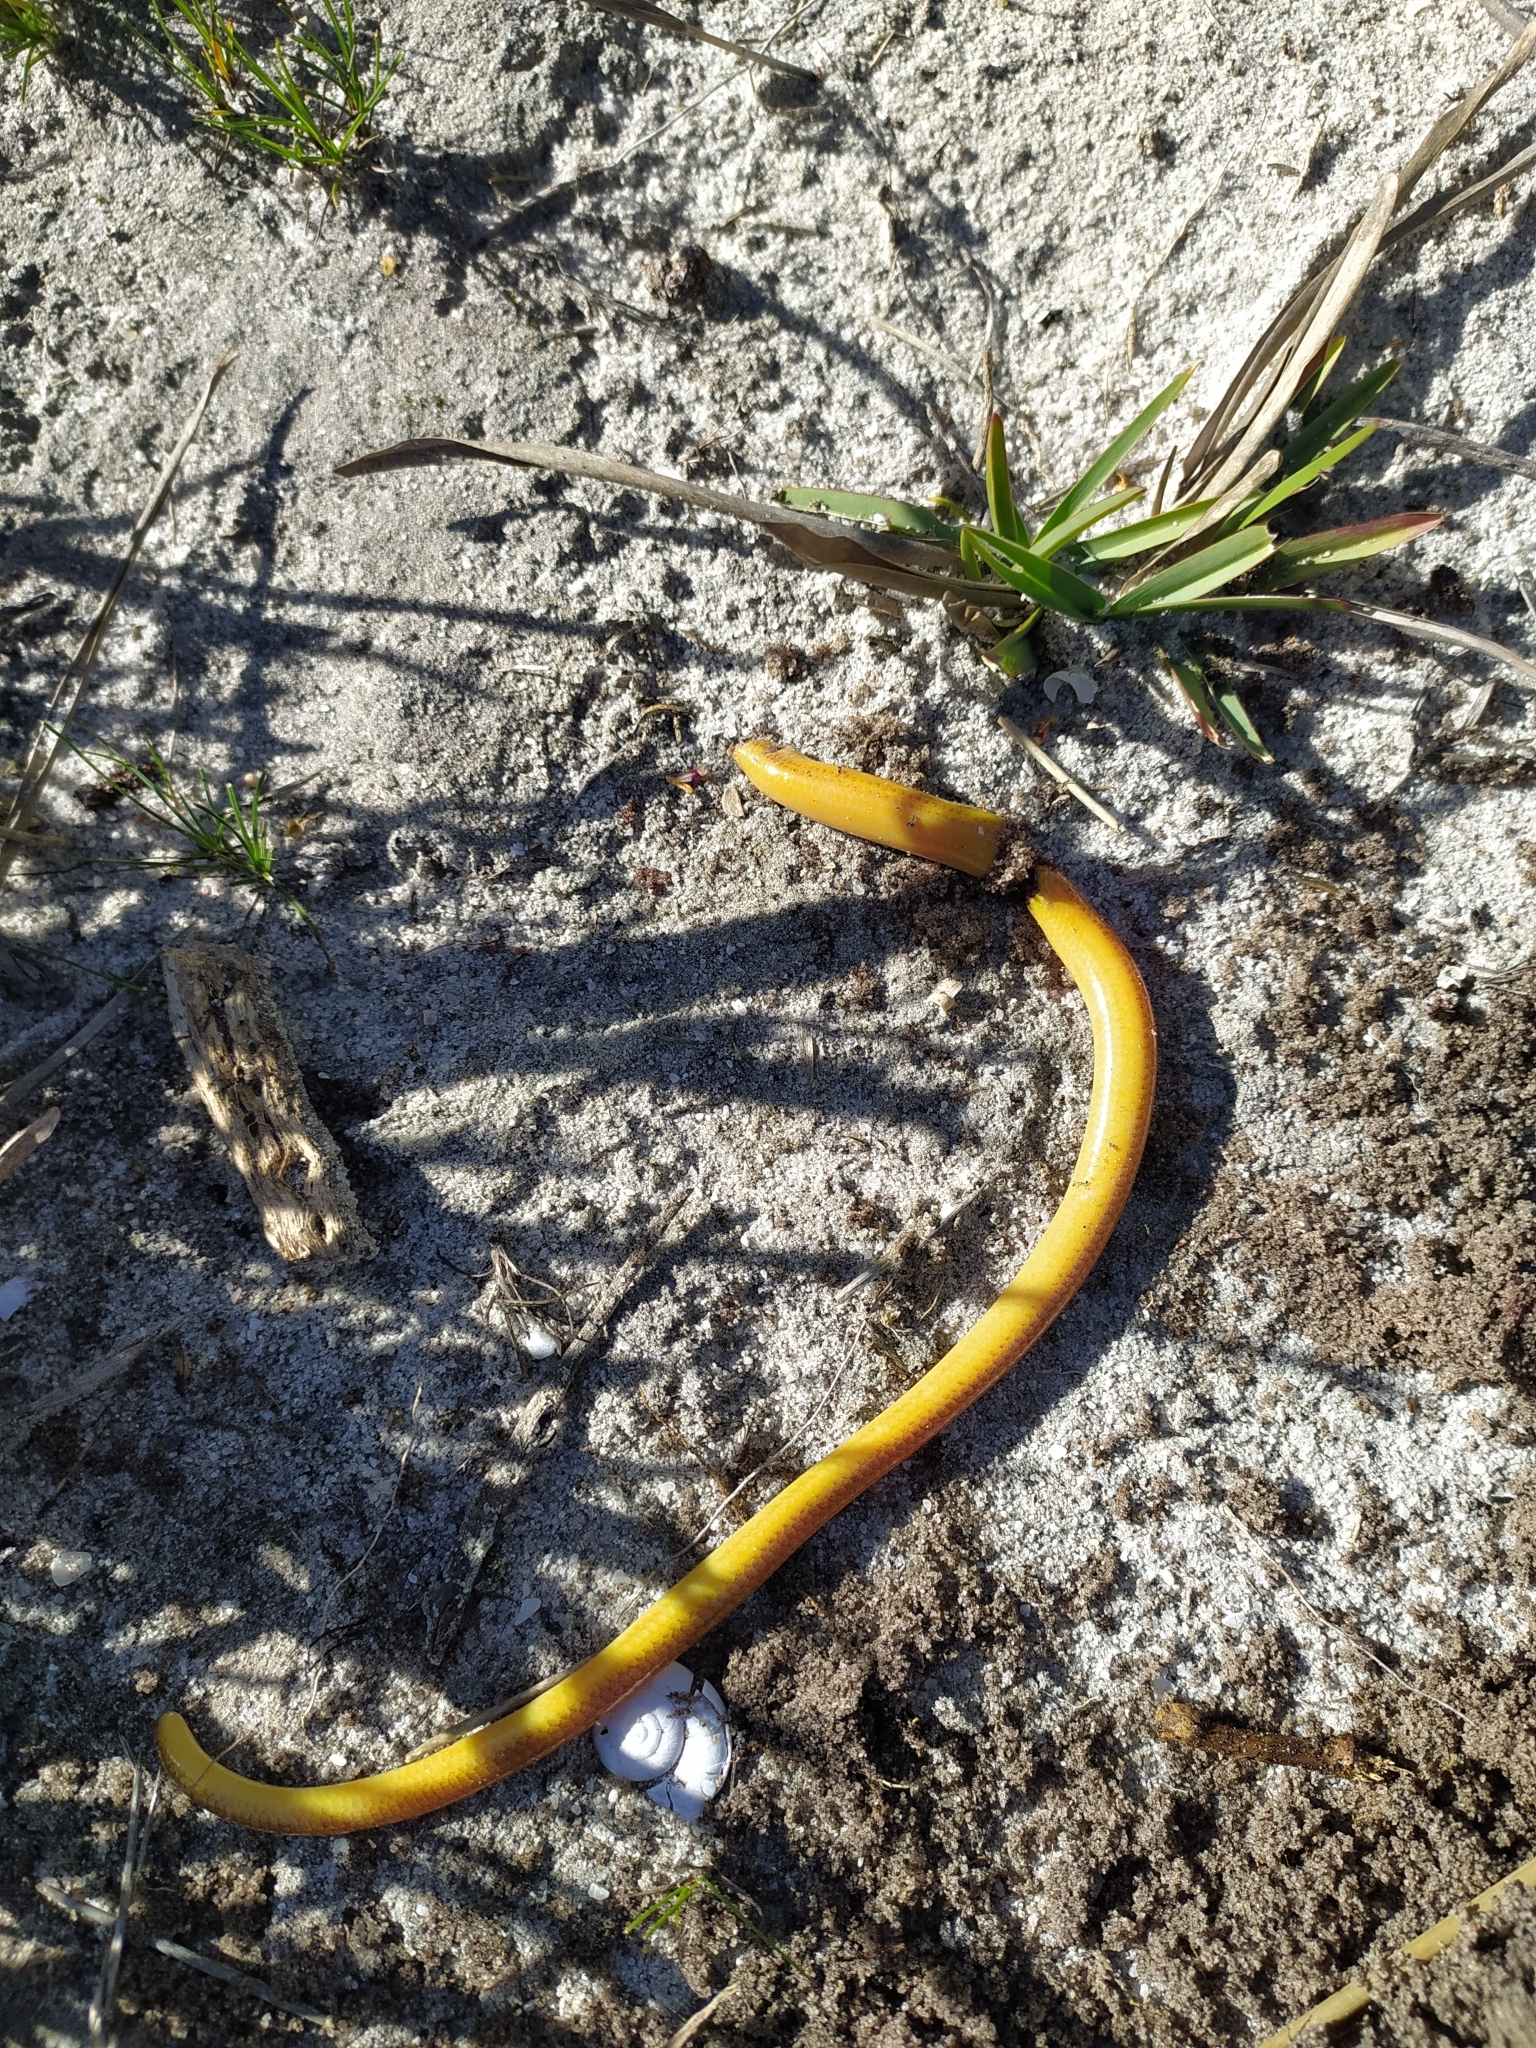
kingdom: Animalia
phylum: Chordata
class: Squamata
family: Scincidae
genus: Acontias
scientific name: Acontias meleagris
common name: Cape legless skink
